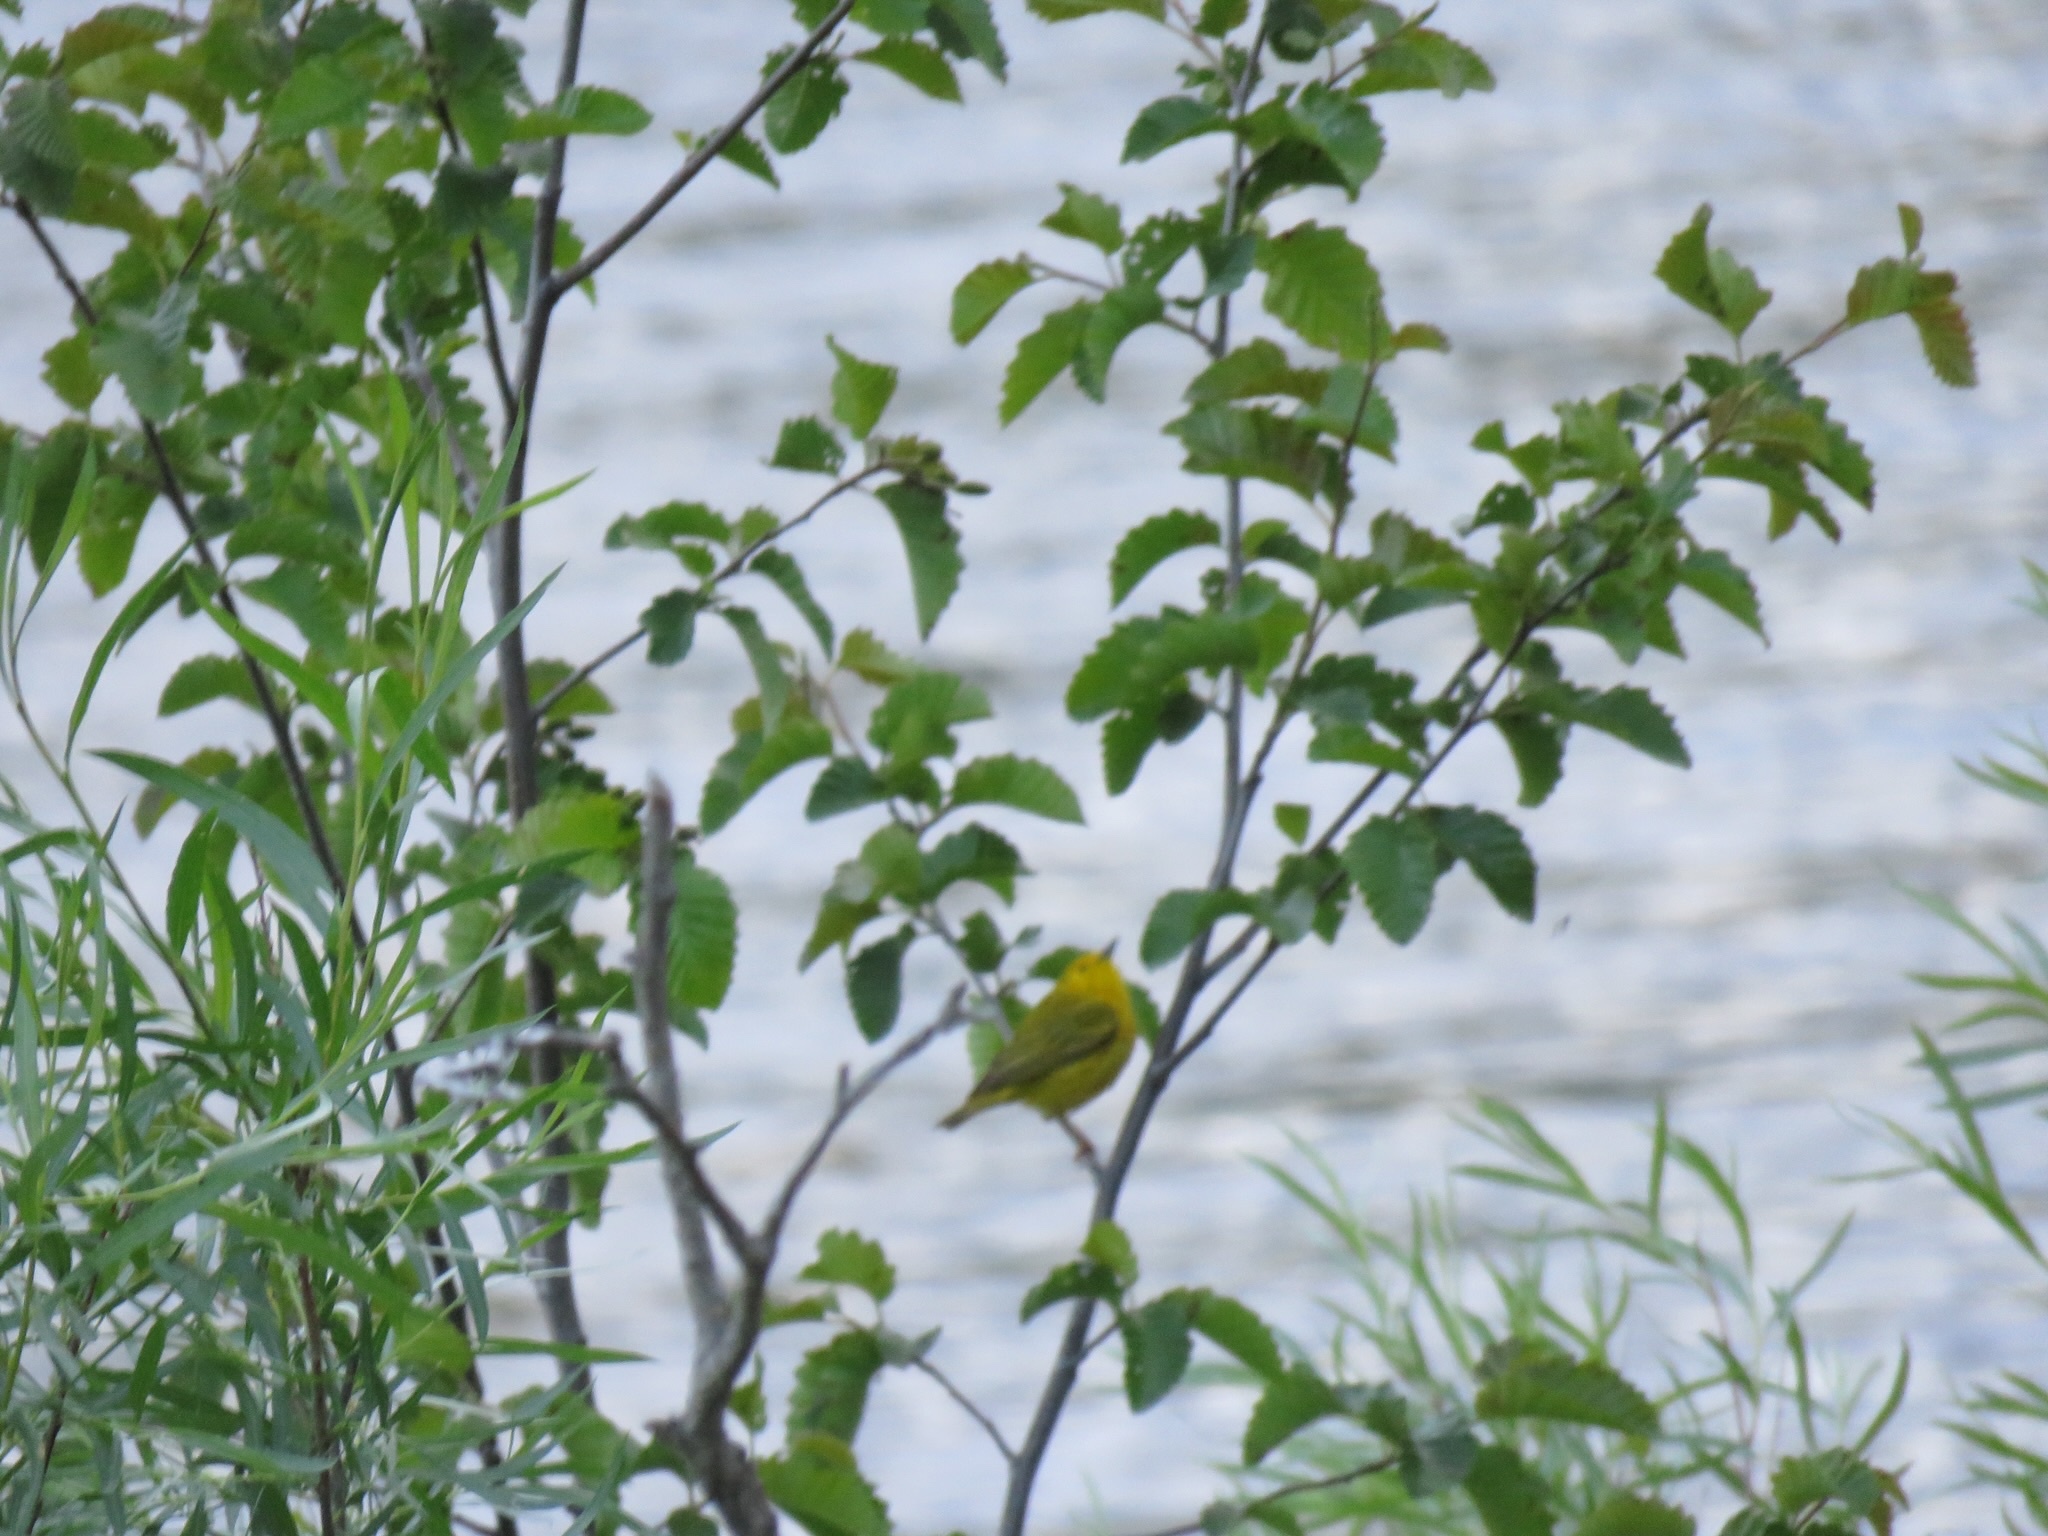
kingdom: Animalia
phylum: Chordata
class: Aves
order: Passeriformes
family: Parulidae
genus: Setophaga
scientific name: Setophaga petechia
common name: Yellow warbler
